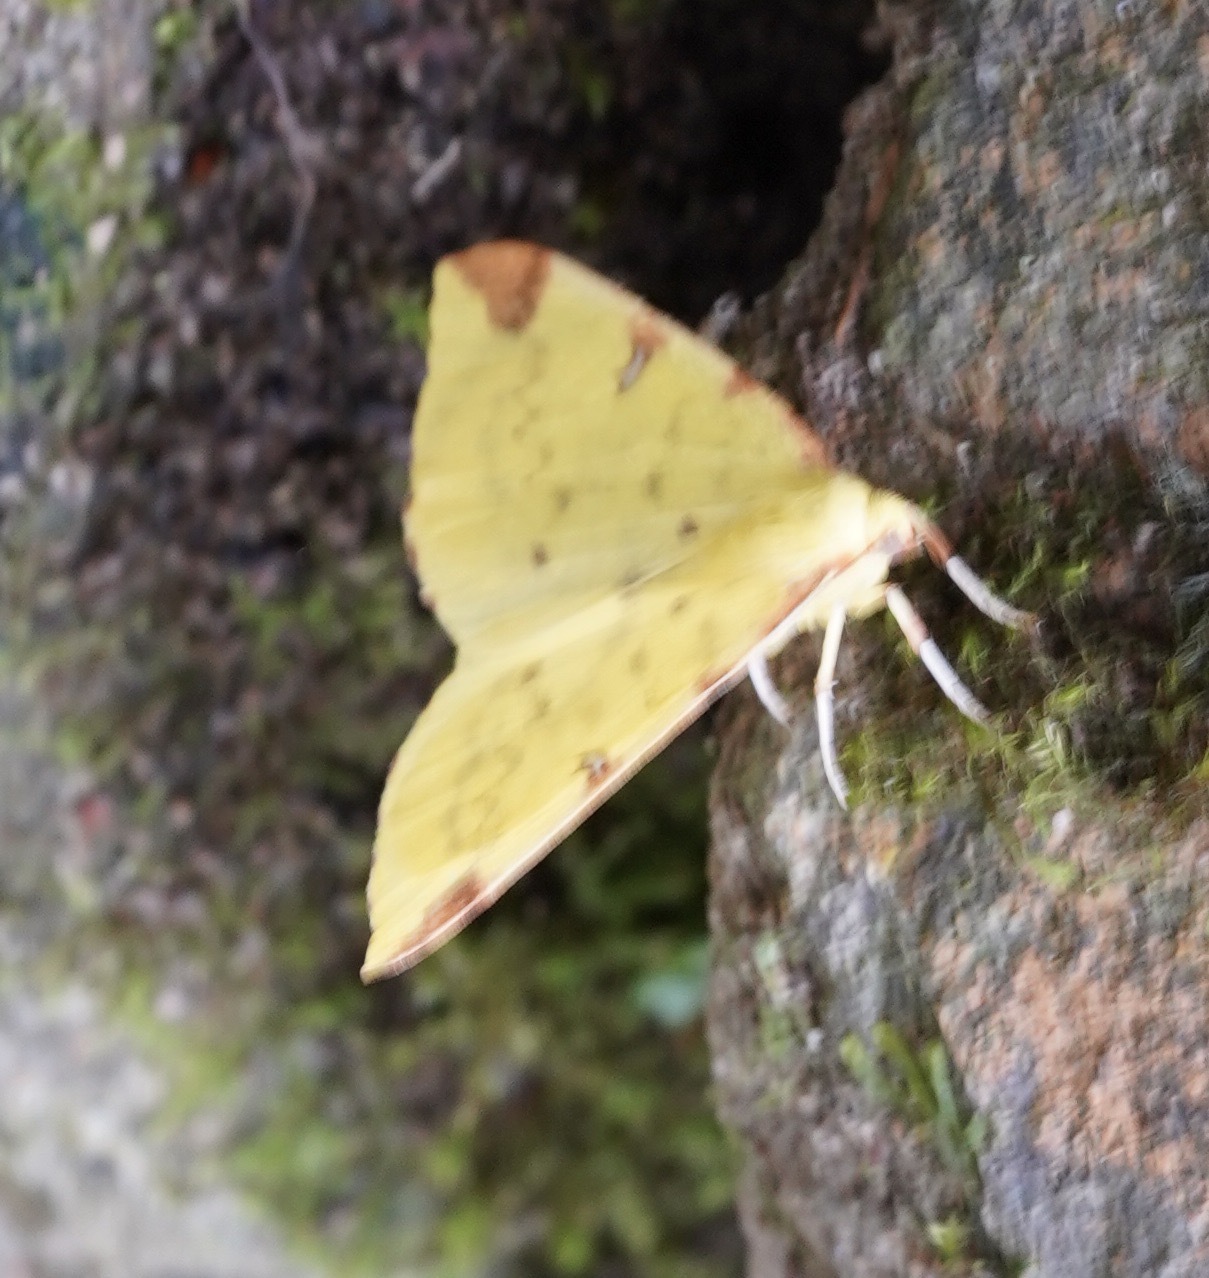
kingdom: Animalia
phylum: Arthropoda
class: Insecta
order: Lepidoptera
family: Geometridae
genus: Opisthograptis
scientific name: Opisthograptis luteolata
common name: Brimstone moth
